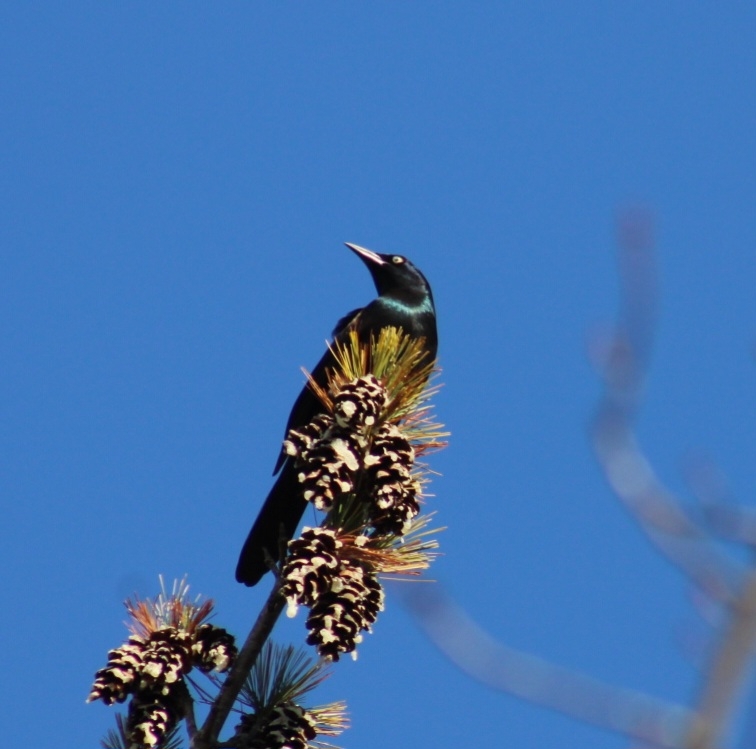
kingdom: Animalia
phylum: Chordata
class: Aves
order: Passeriformes
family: Icteridae
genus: Quiscalus
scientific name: Quiscalus quiscula
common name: Common grackle
